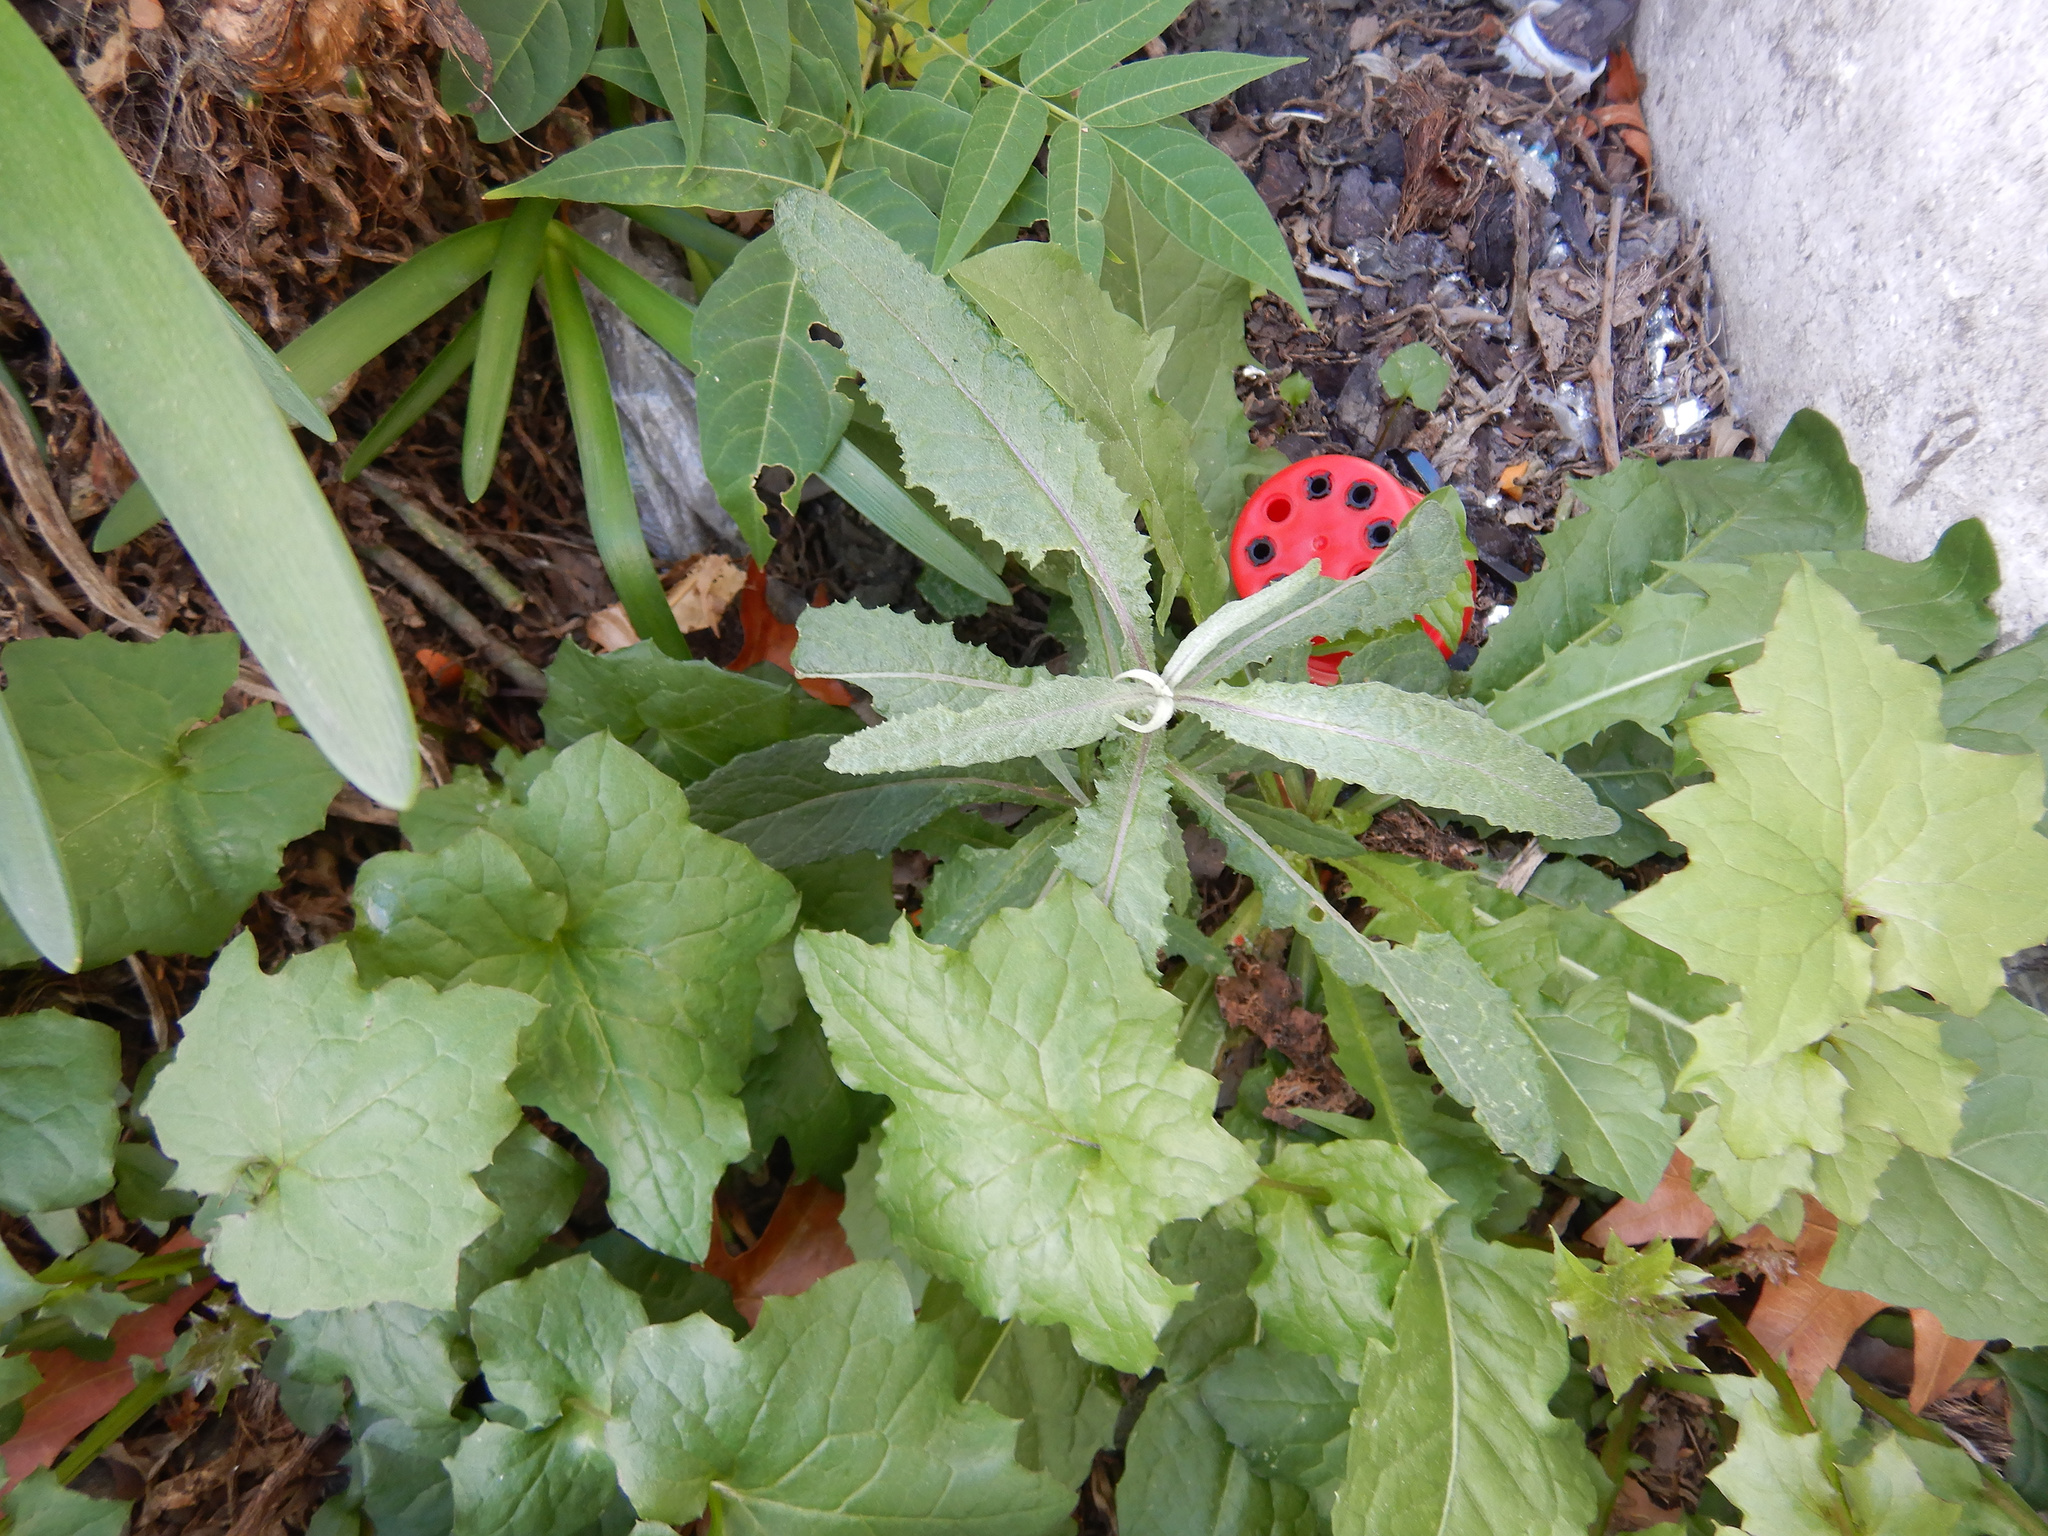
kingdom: Plantae
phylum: Tracheophyta
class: Magnoliopsida
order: Asterales
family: Asteraceae
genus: Senecio
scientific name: Senecio minimus
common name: Toothed fireweed
